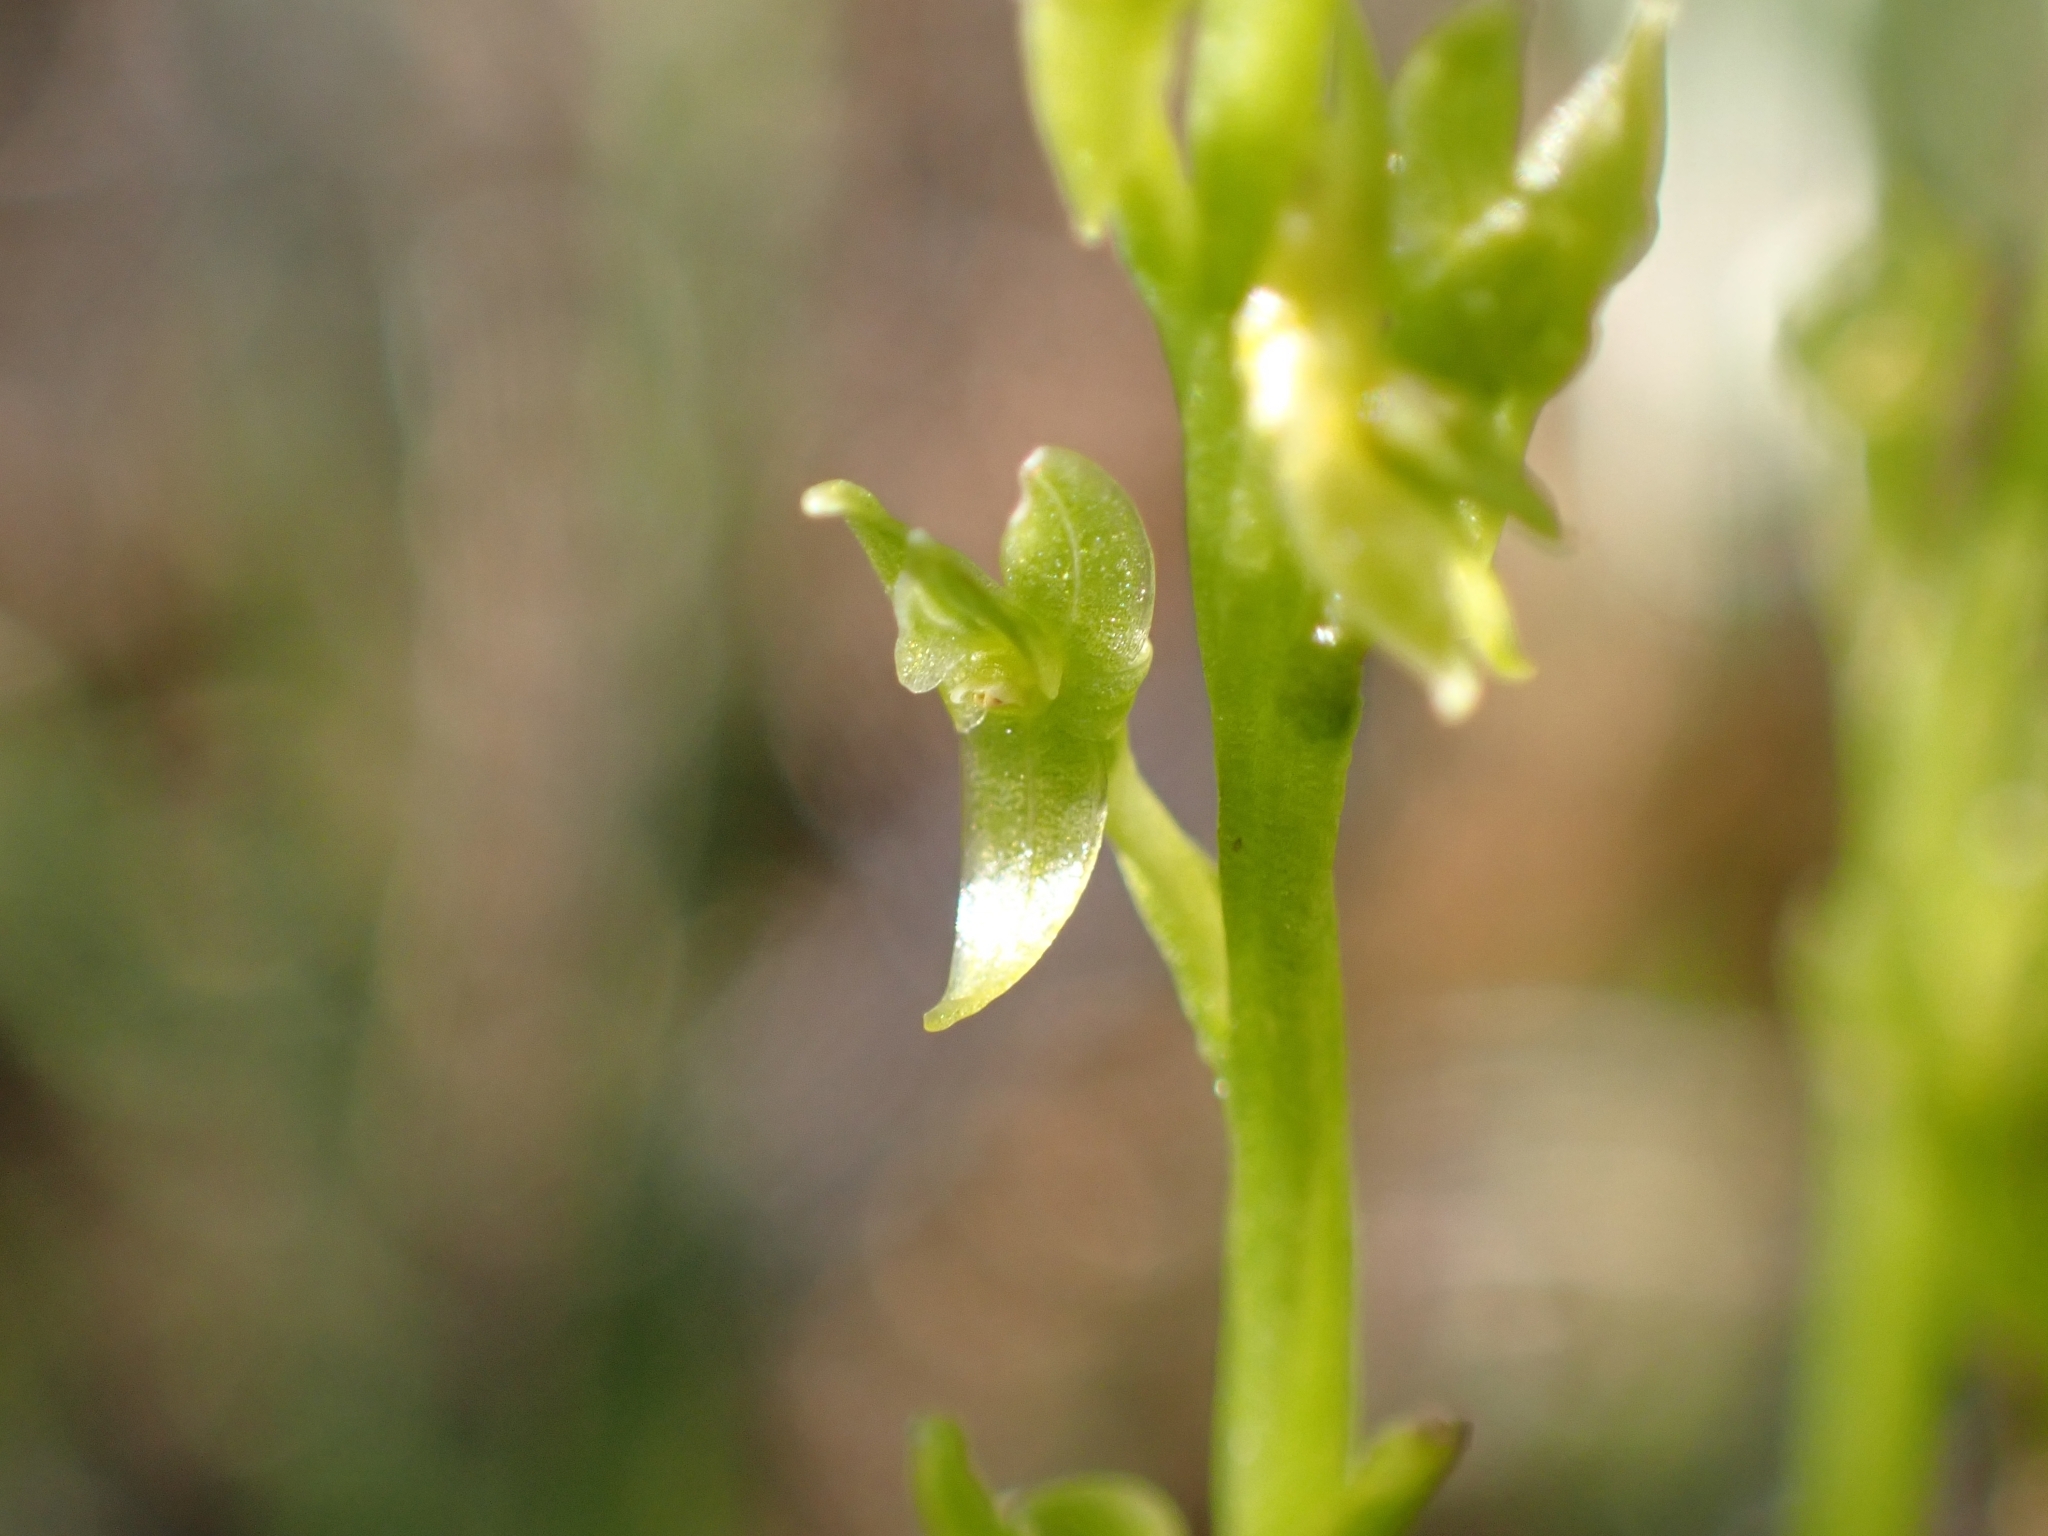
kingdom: Plantae
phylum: Tracheophyta
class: Liliopsida
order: Asparagales
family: Orchidaceae
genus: Hammarbya
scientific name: Hammarbya paludosa
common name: Bog orchid
